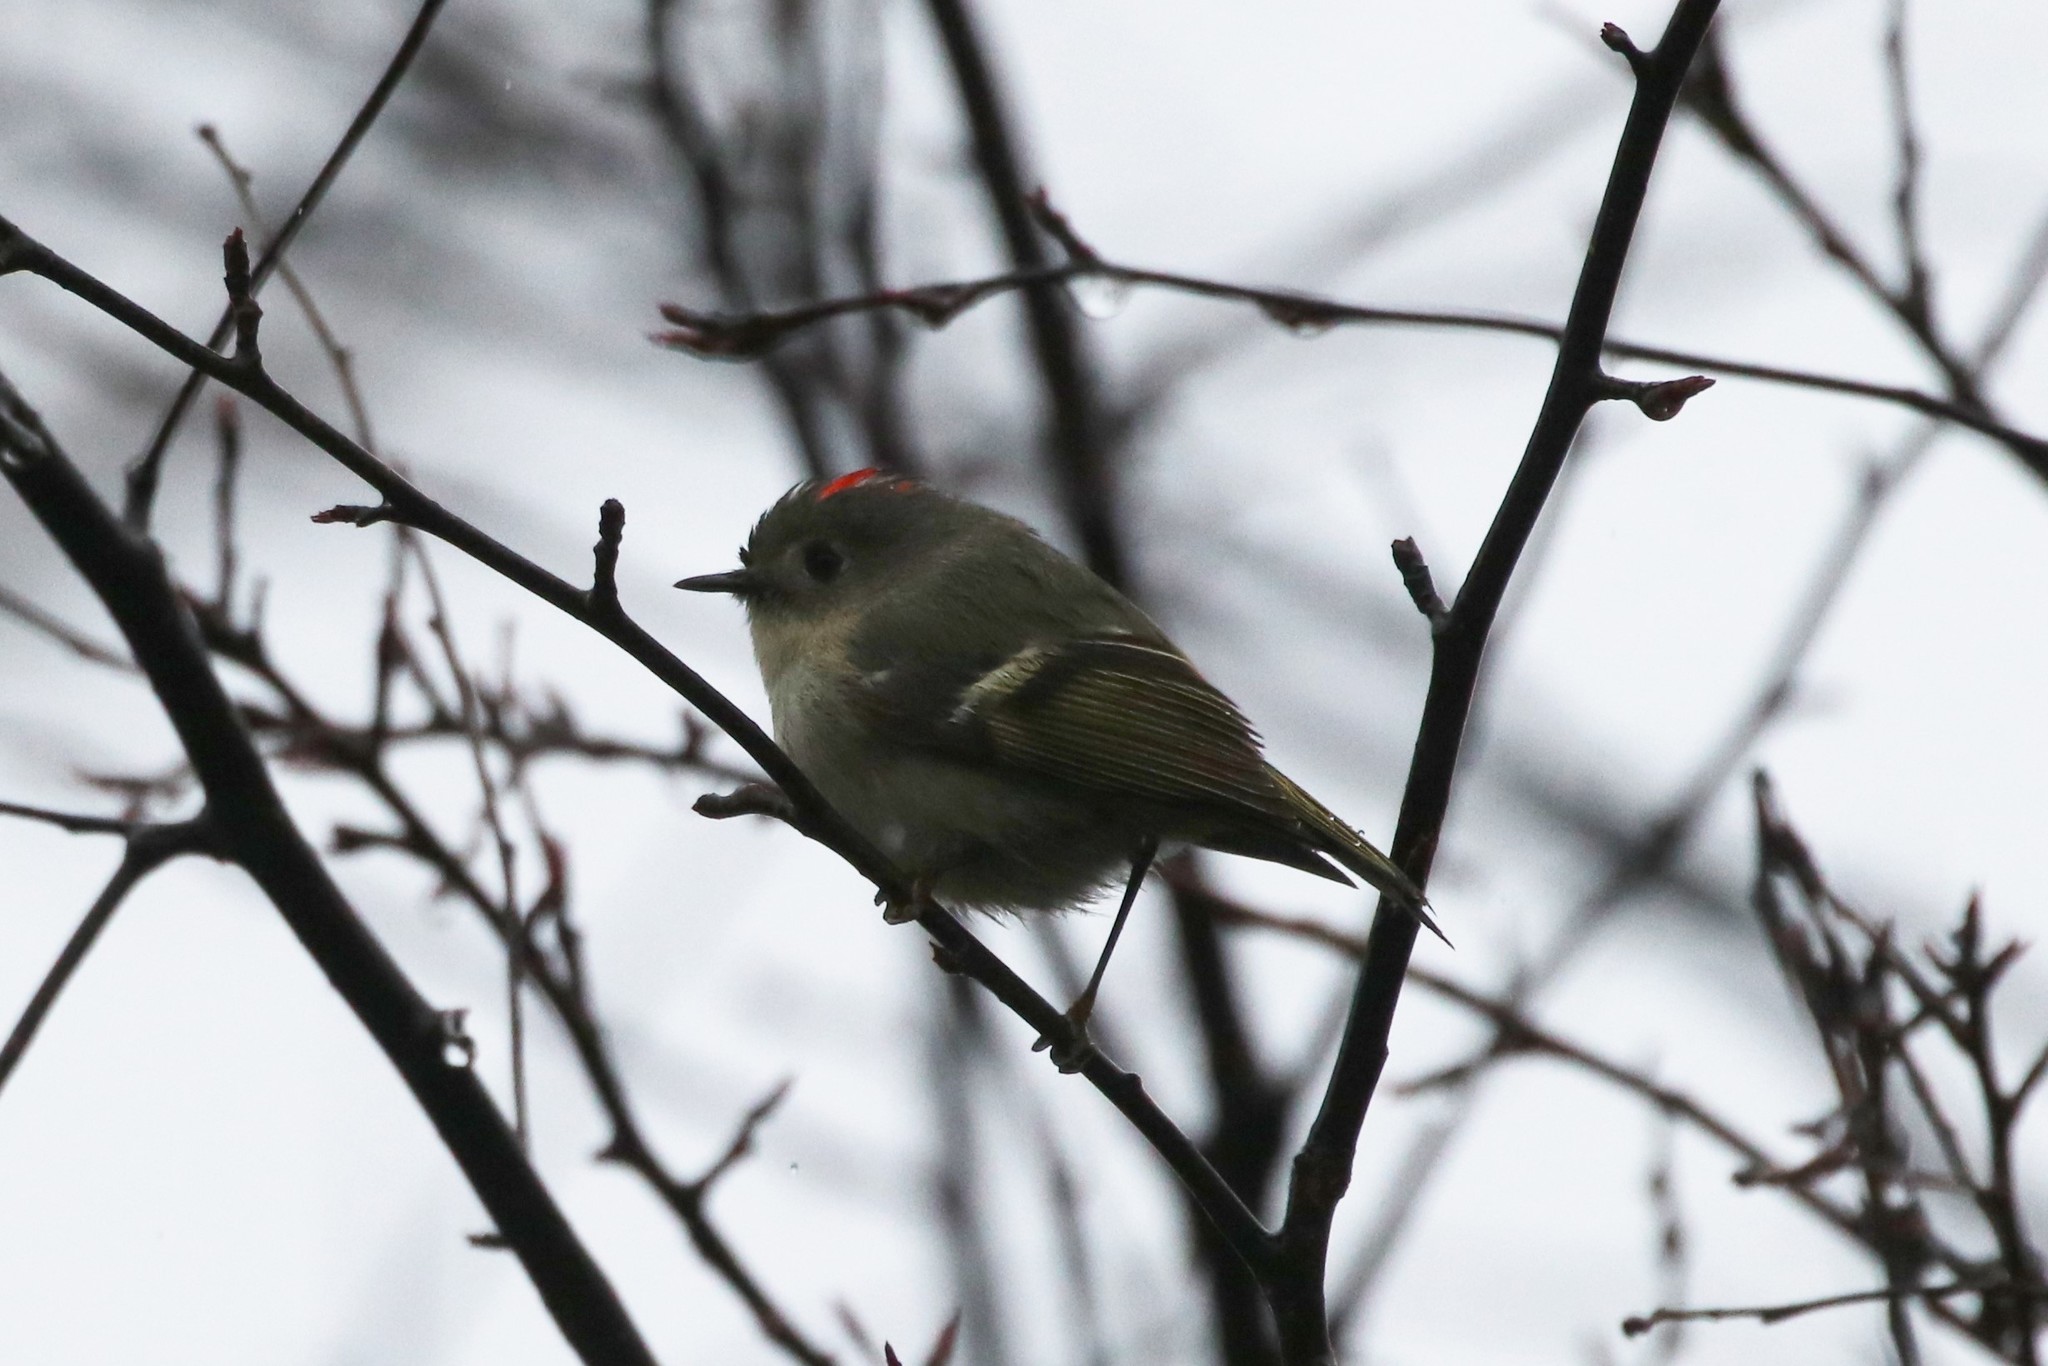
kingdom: Animalia
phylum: Chordata
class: Aves
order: Passeriformes
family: Regulidae
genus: Regulus
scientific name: Regulus calendula
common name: Ruby-crowned kinglet
